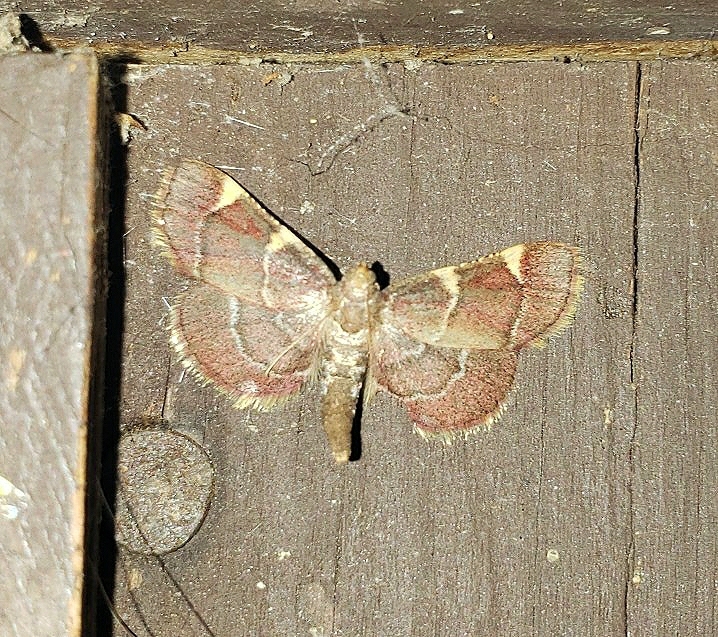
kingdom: Animalia
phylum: Arthropoda
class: Insecta
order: Lepidoptera
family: Pyralidae
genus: Hypsopygia
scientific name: Hypsopygia olinalis
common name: Yellow-fringed dolichomia moth
